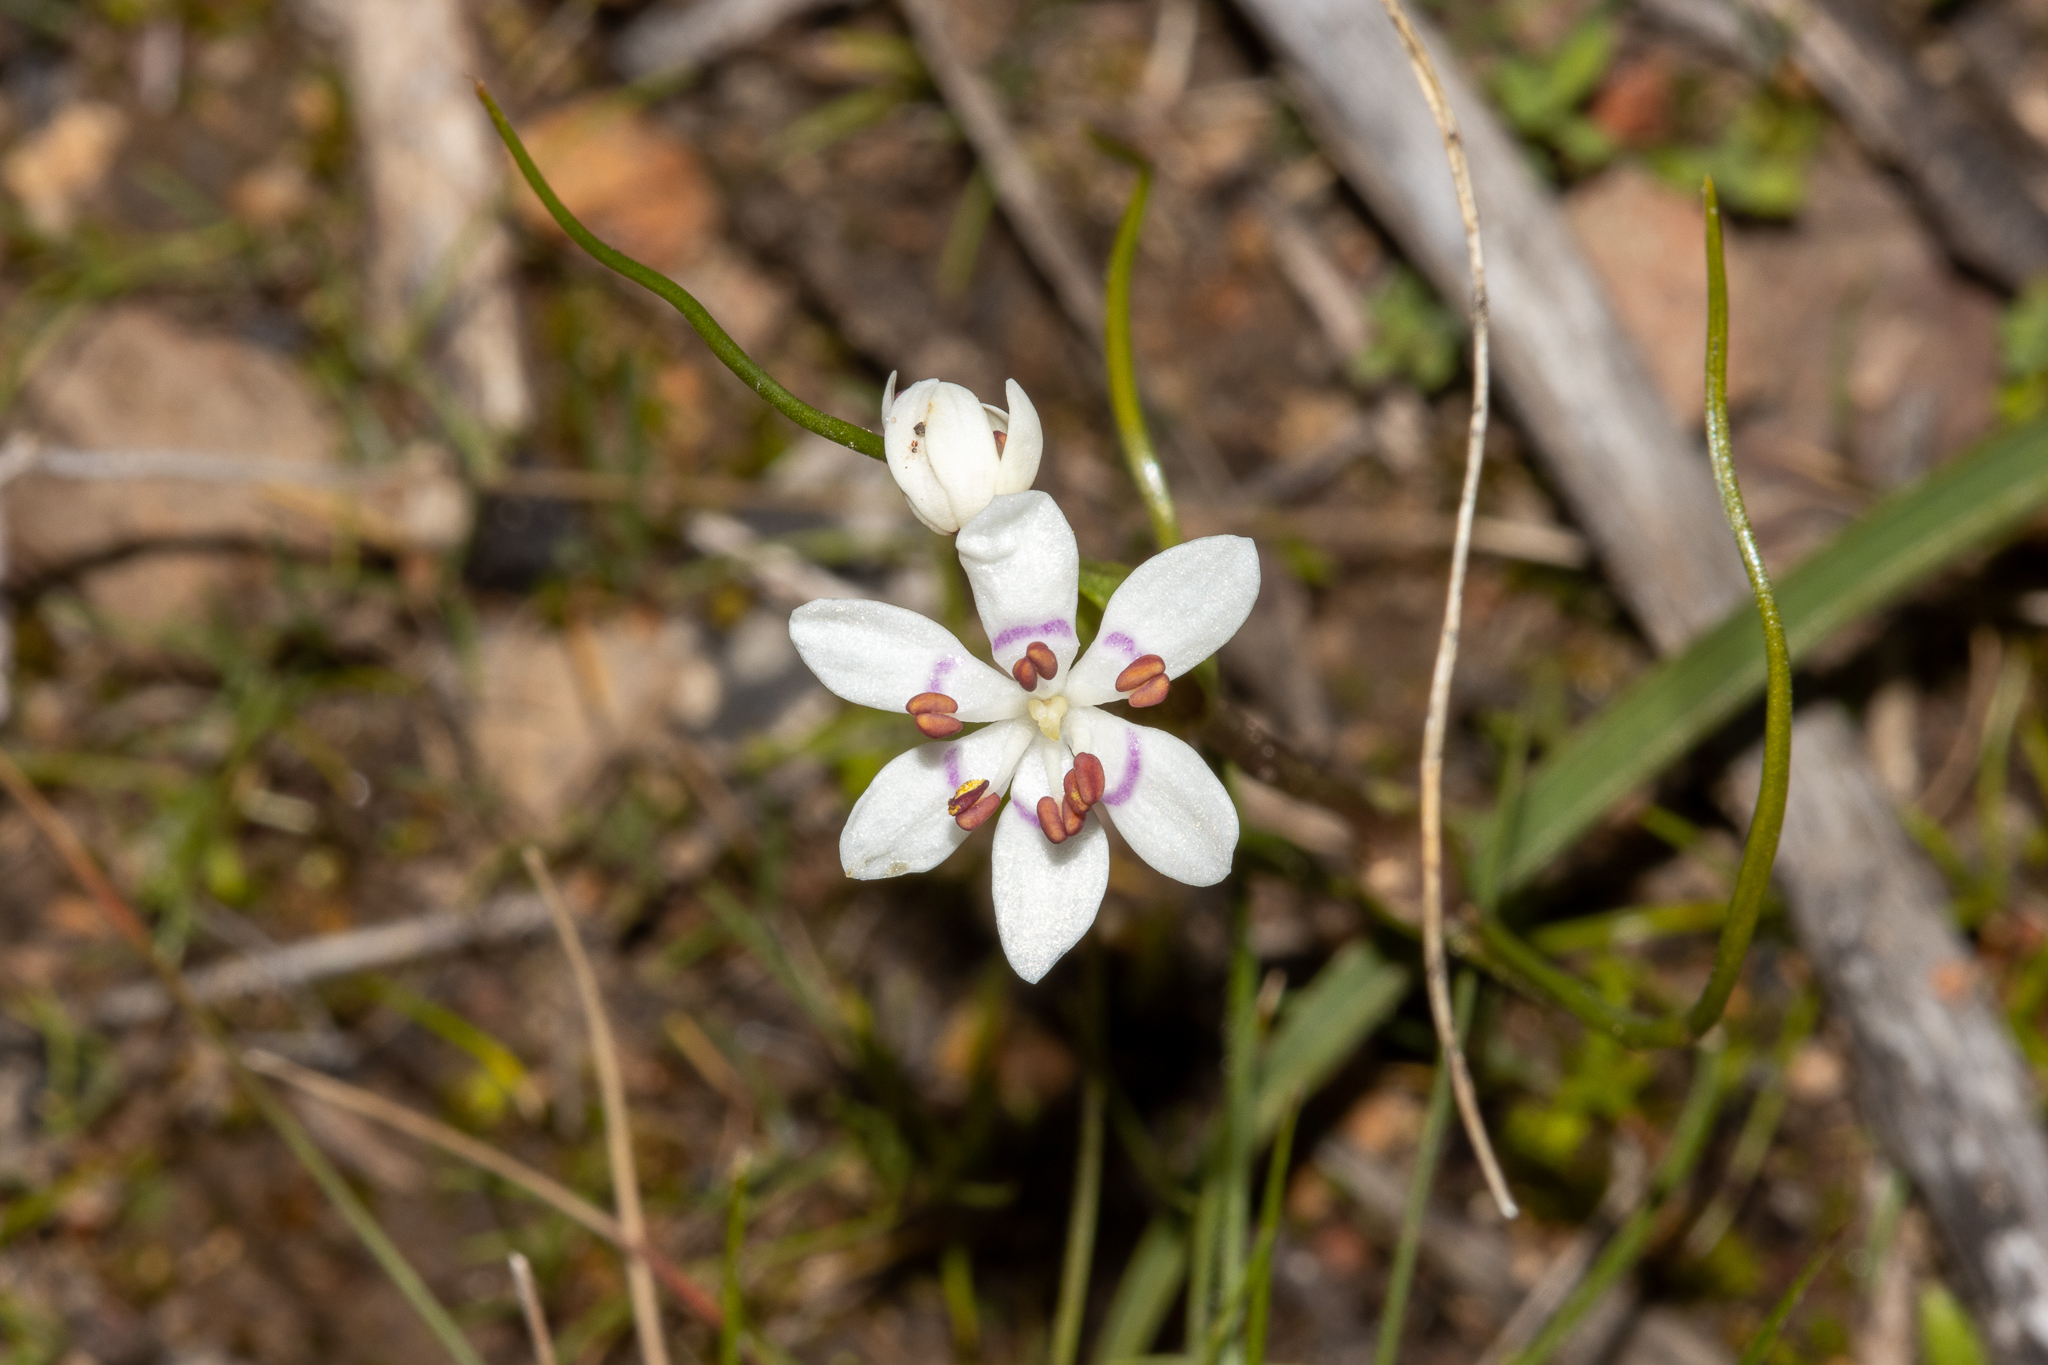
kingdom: Plantae
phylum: Tracheophyta
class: Liliopsida
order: Liliales
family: Colchicaceae
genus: Wurmbea
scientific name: Wurmbea dioica
